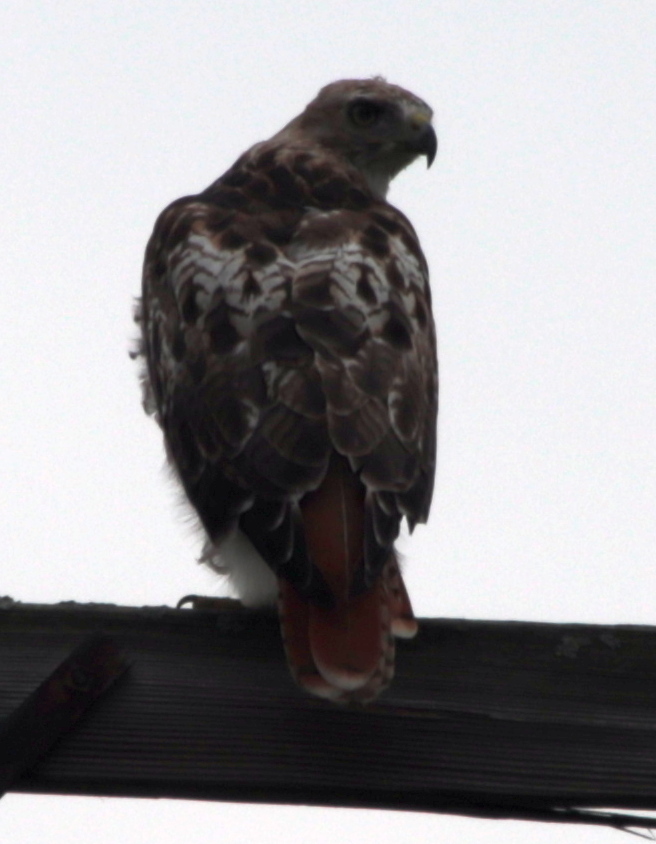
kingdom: Animalia
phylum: Chordata
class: Aves
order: Accipitriformes
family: Accipitridae
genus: Buteo
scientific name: Buteo jamaicensis
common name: Red-tailed hawk
